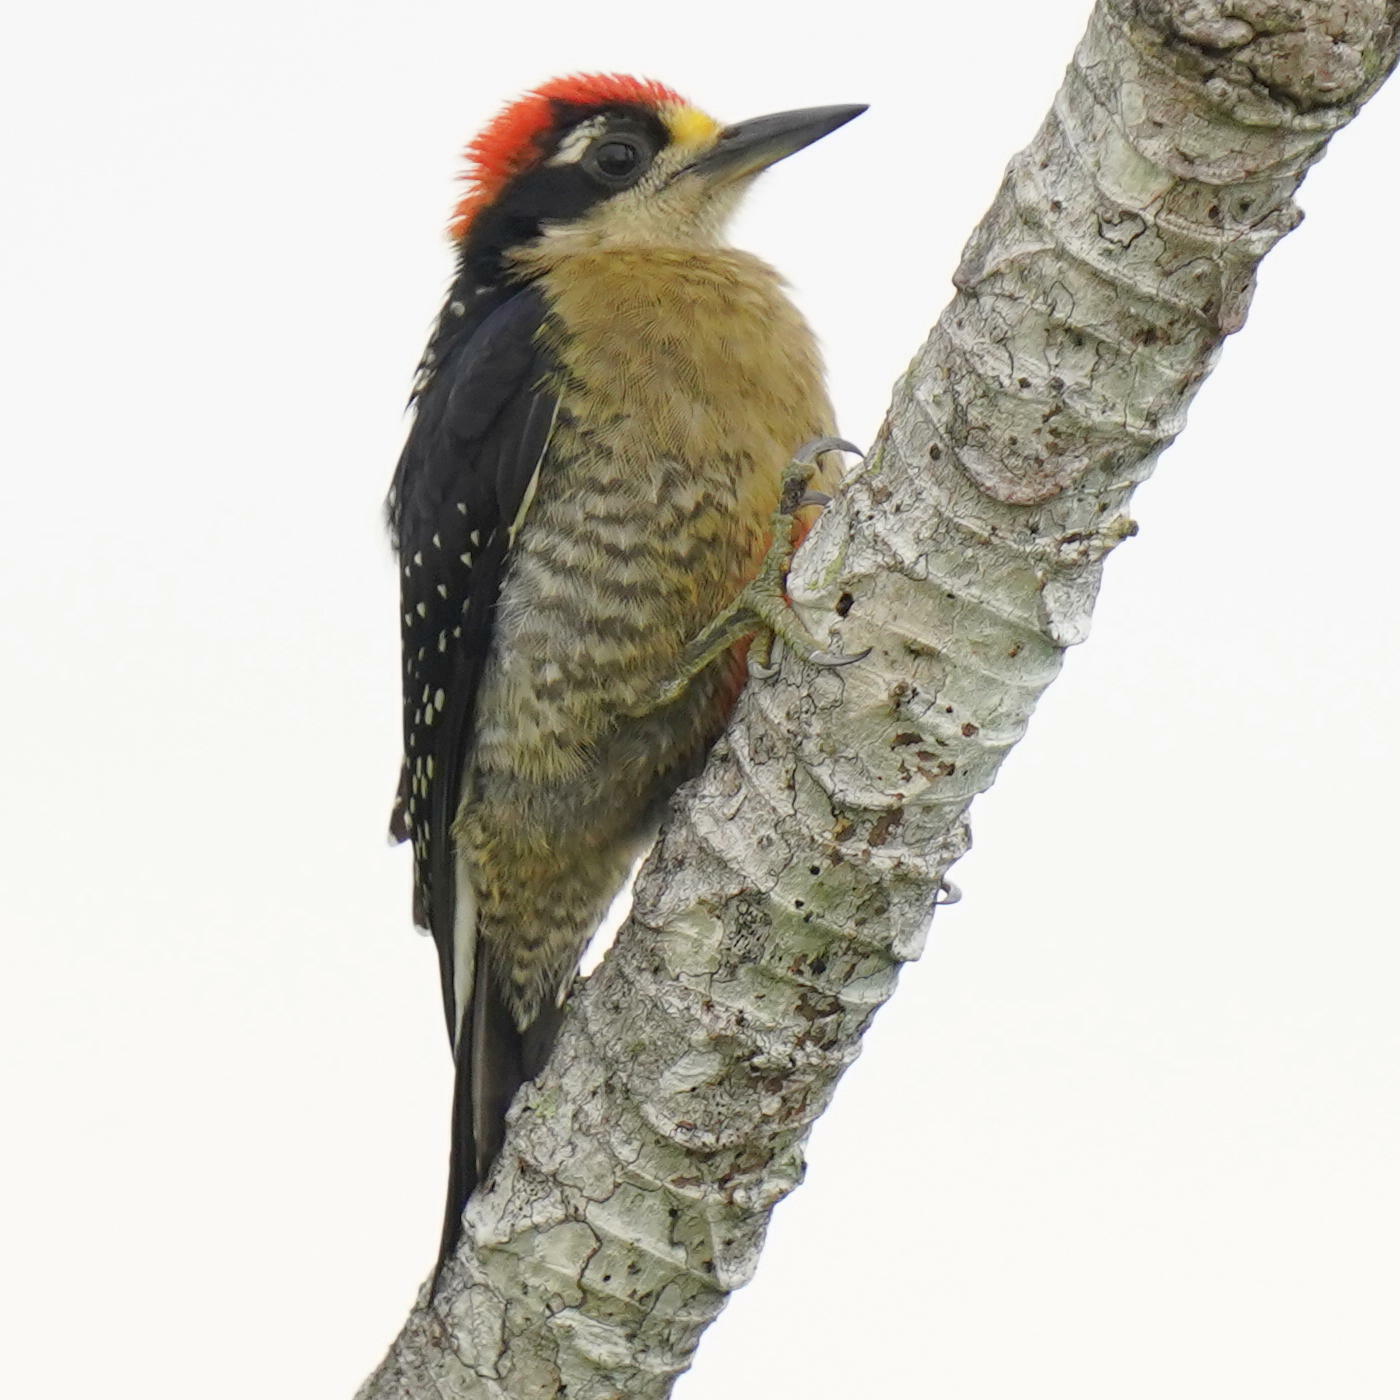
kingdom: Animalia
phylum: Chordata
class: Aves
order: Piciformes
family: Picidae
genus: Melanerpes
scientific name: Melanerpes pucherani
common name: Black-cheeked woodpecker
